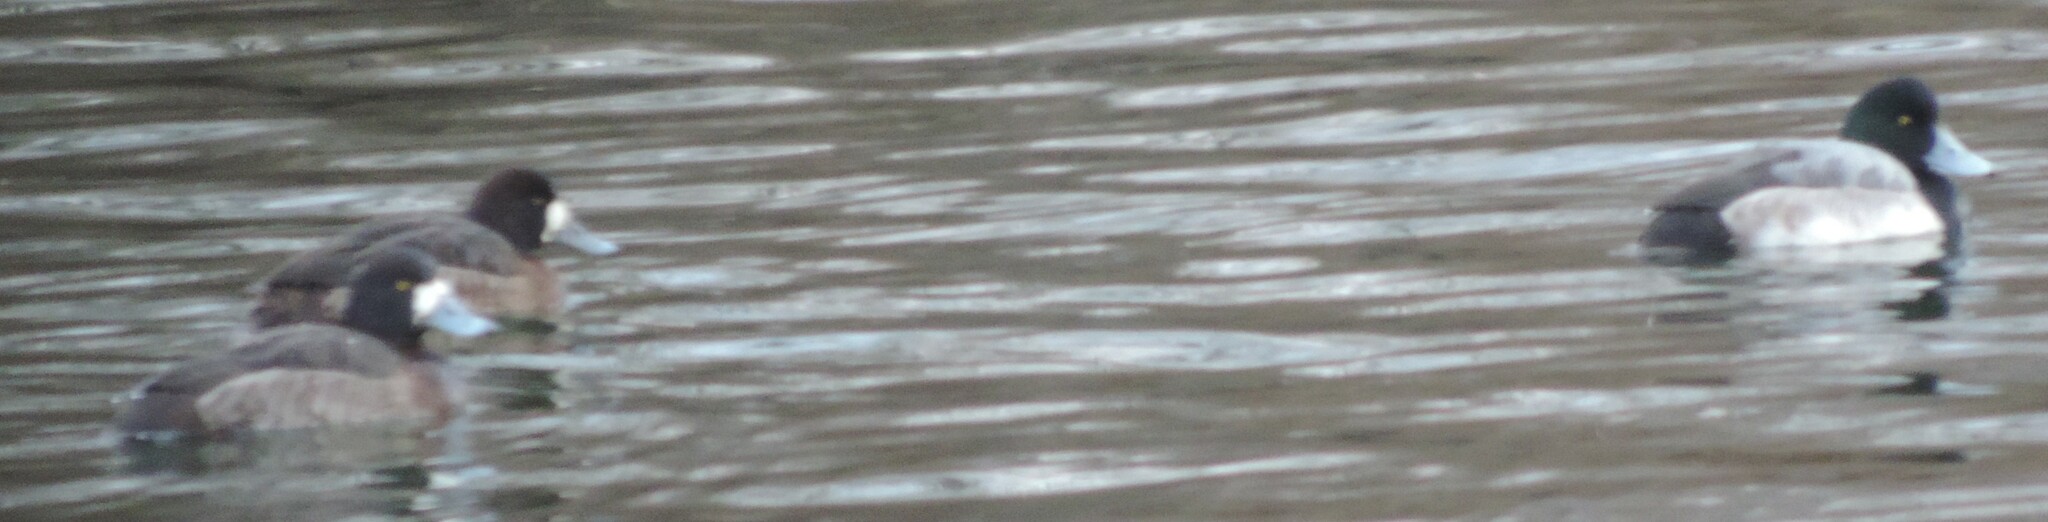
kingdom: Animalia
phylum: Chordata
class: Aves
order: Anseriformes
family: Anatidae
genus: Aythya
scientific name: Aythya marila
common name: Greater scaup
